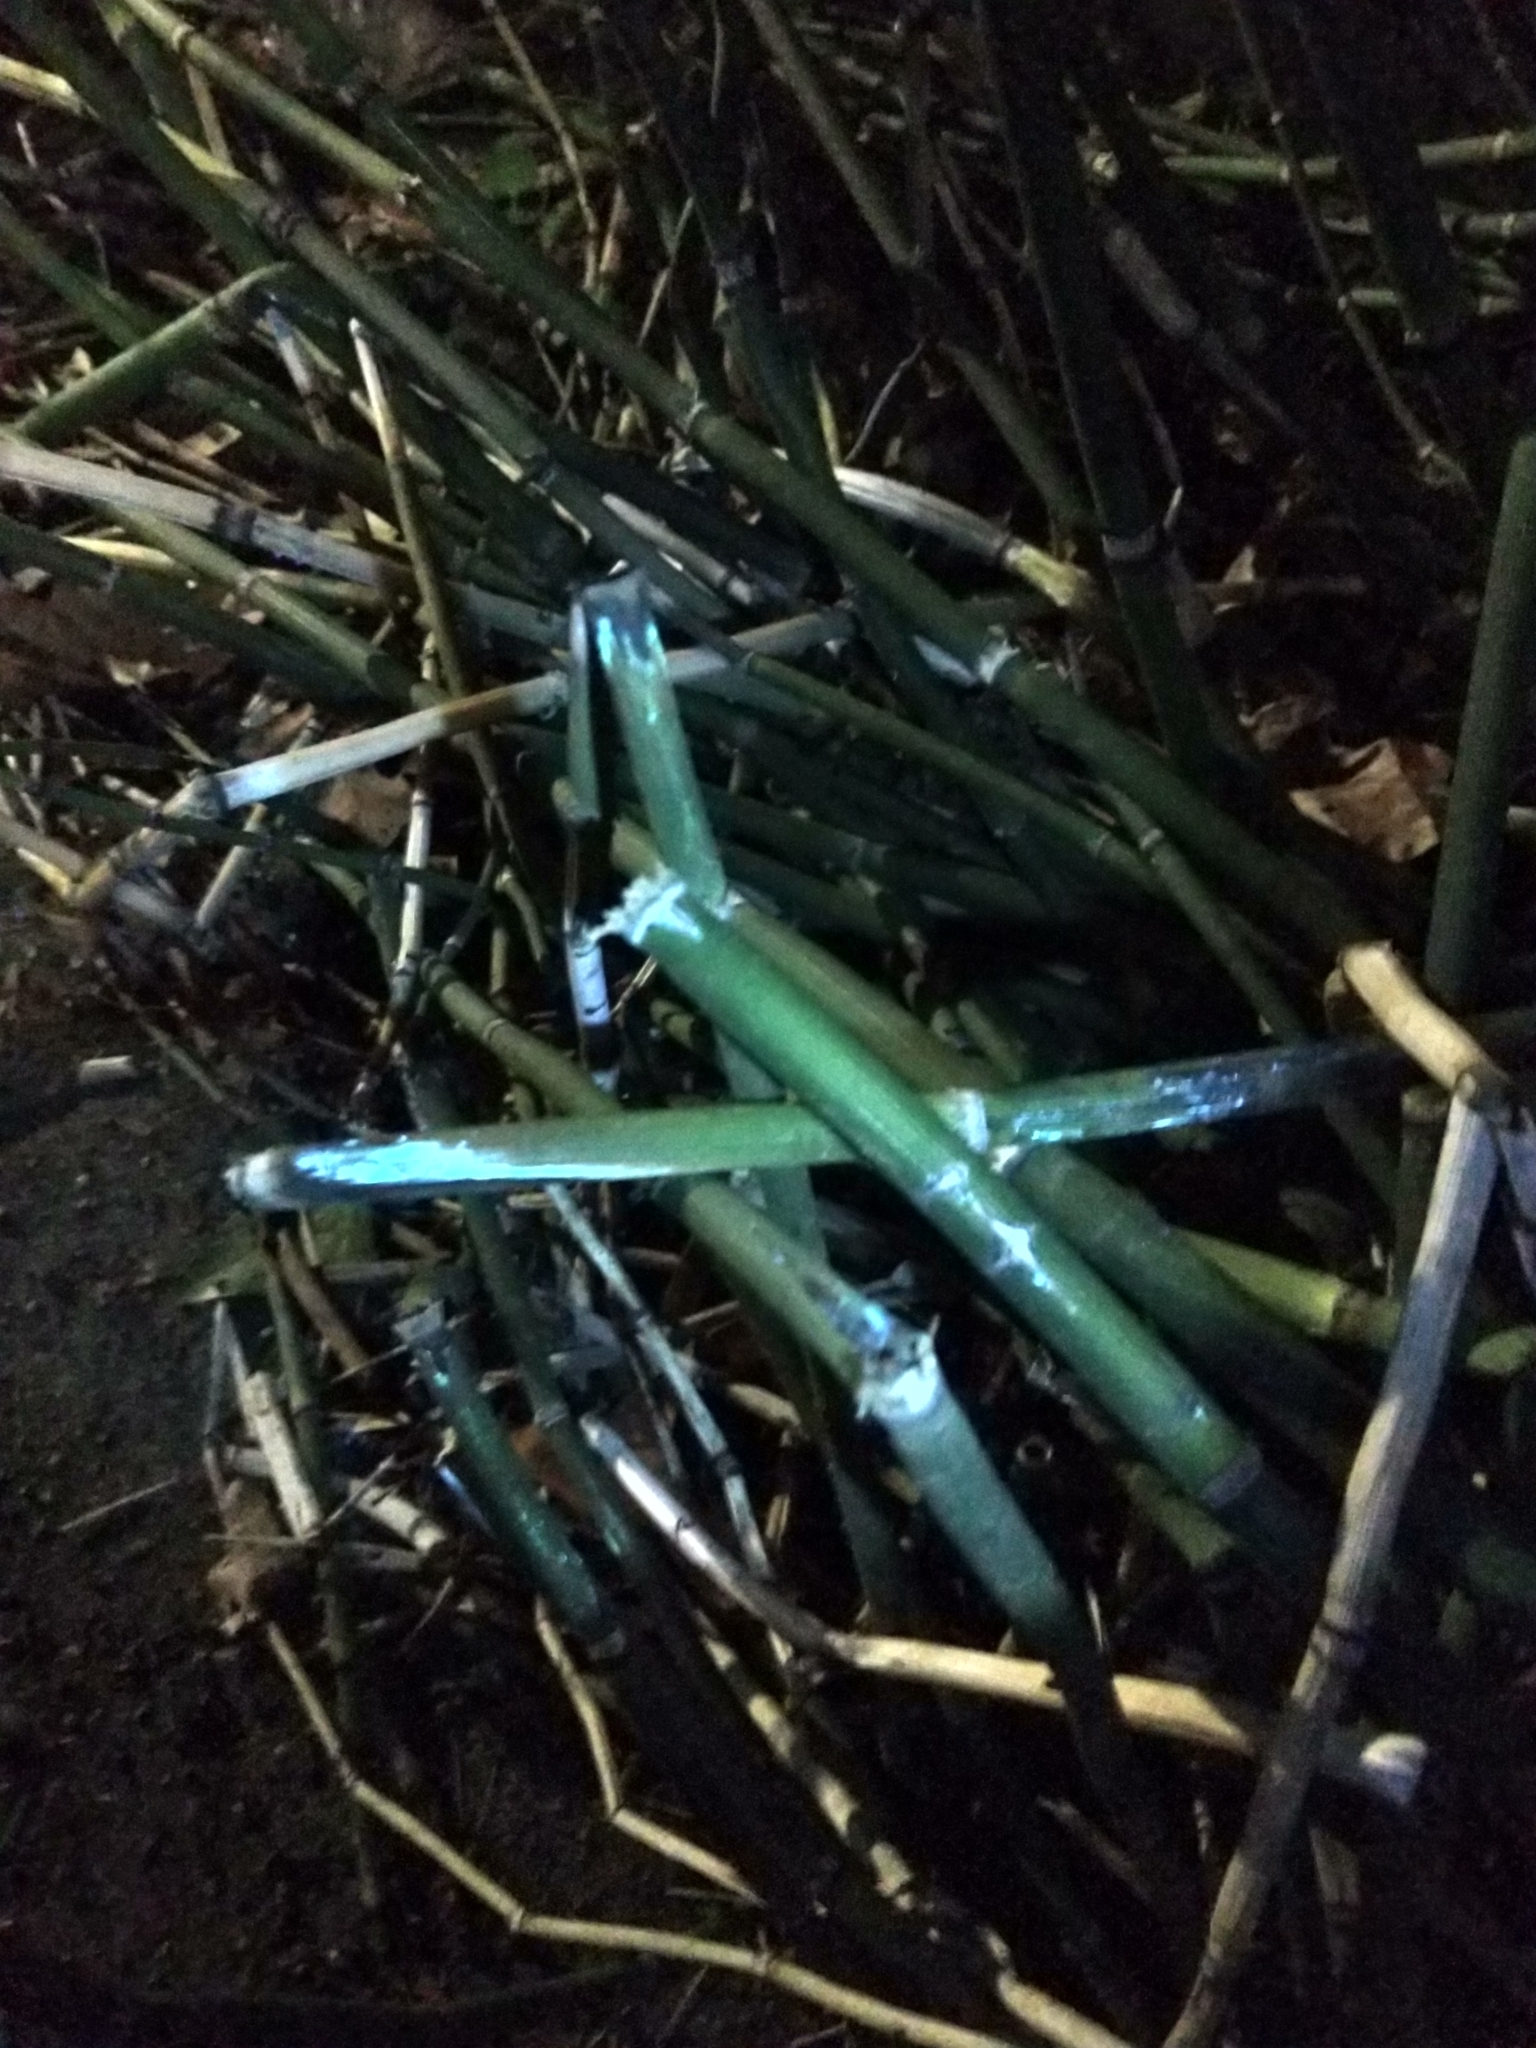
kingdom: Plantae
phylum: Tracheophyta
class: Polypodiopsida
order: Equisetales
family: Equisetaceae
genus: Equisetum
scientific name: Equisetum hyemale
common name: Rough horsetail
